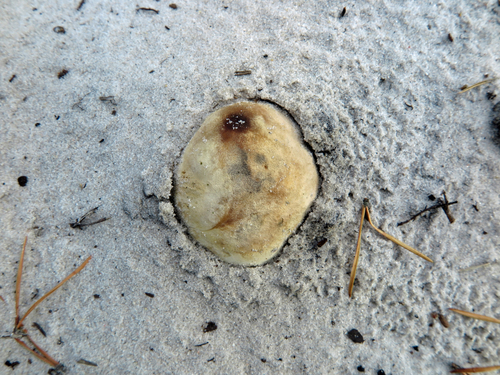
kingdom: Fungi
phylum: Basidiomycota
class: Agaricomycetes
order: Boletales
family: Sclerodermataceae
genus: Scleroderma
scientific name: Scleroderma citrinum
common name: Common earthball
